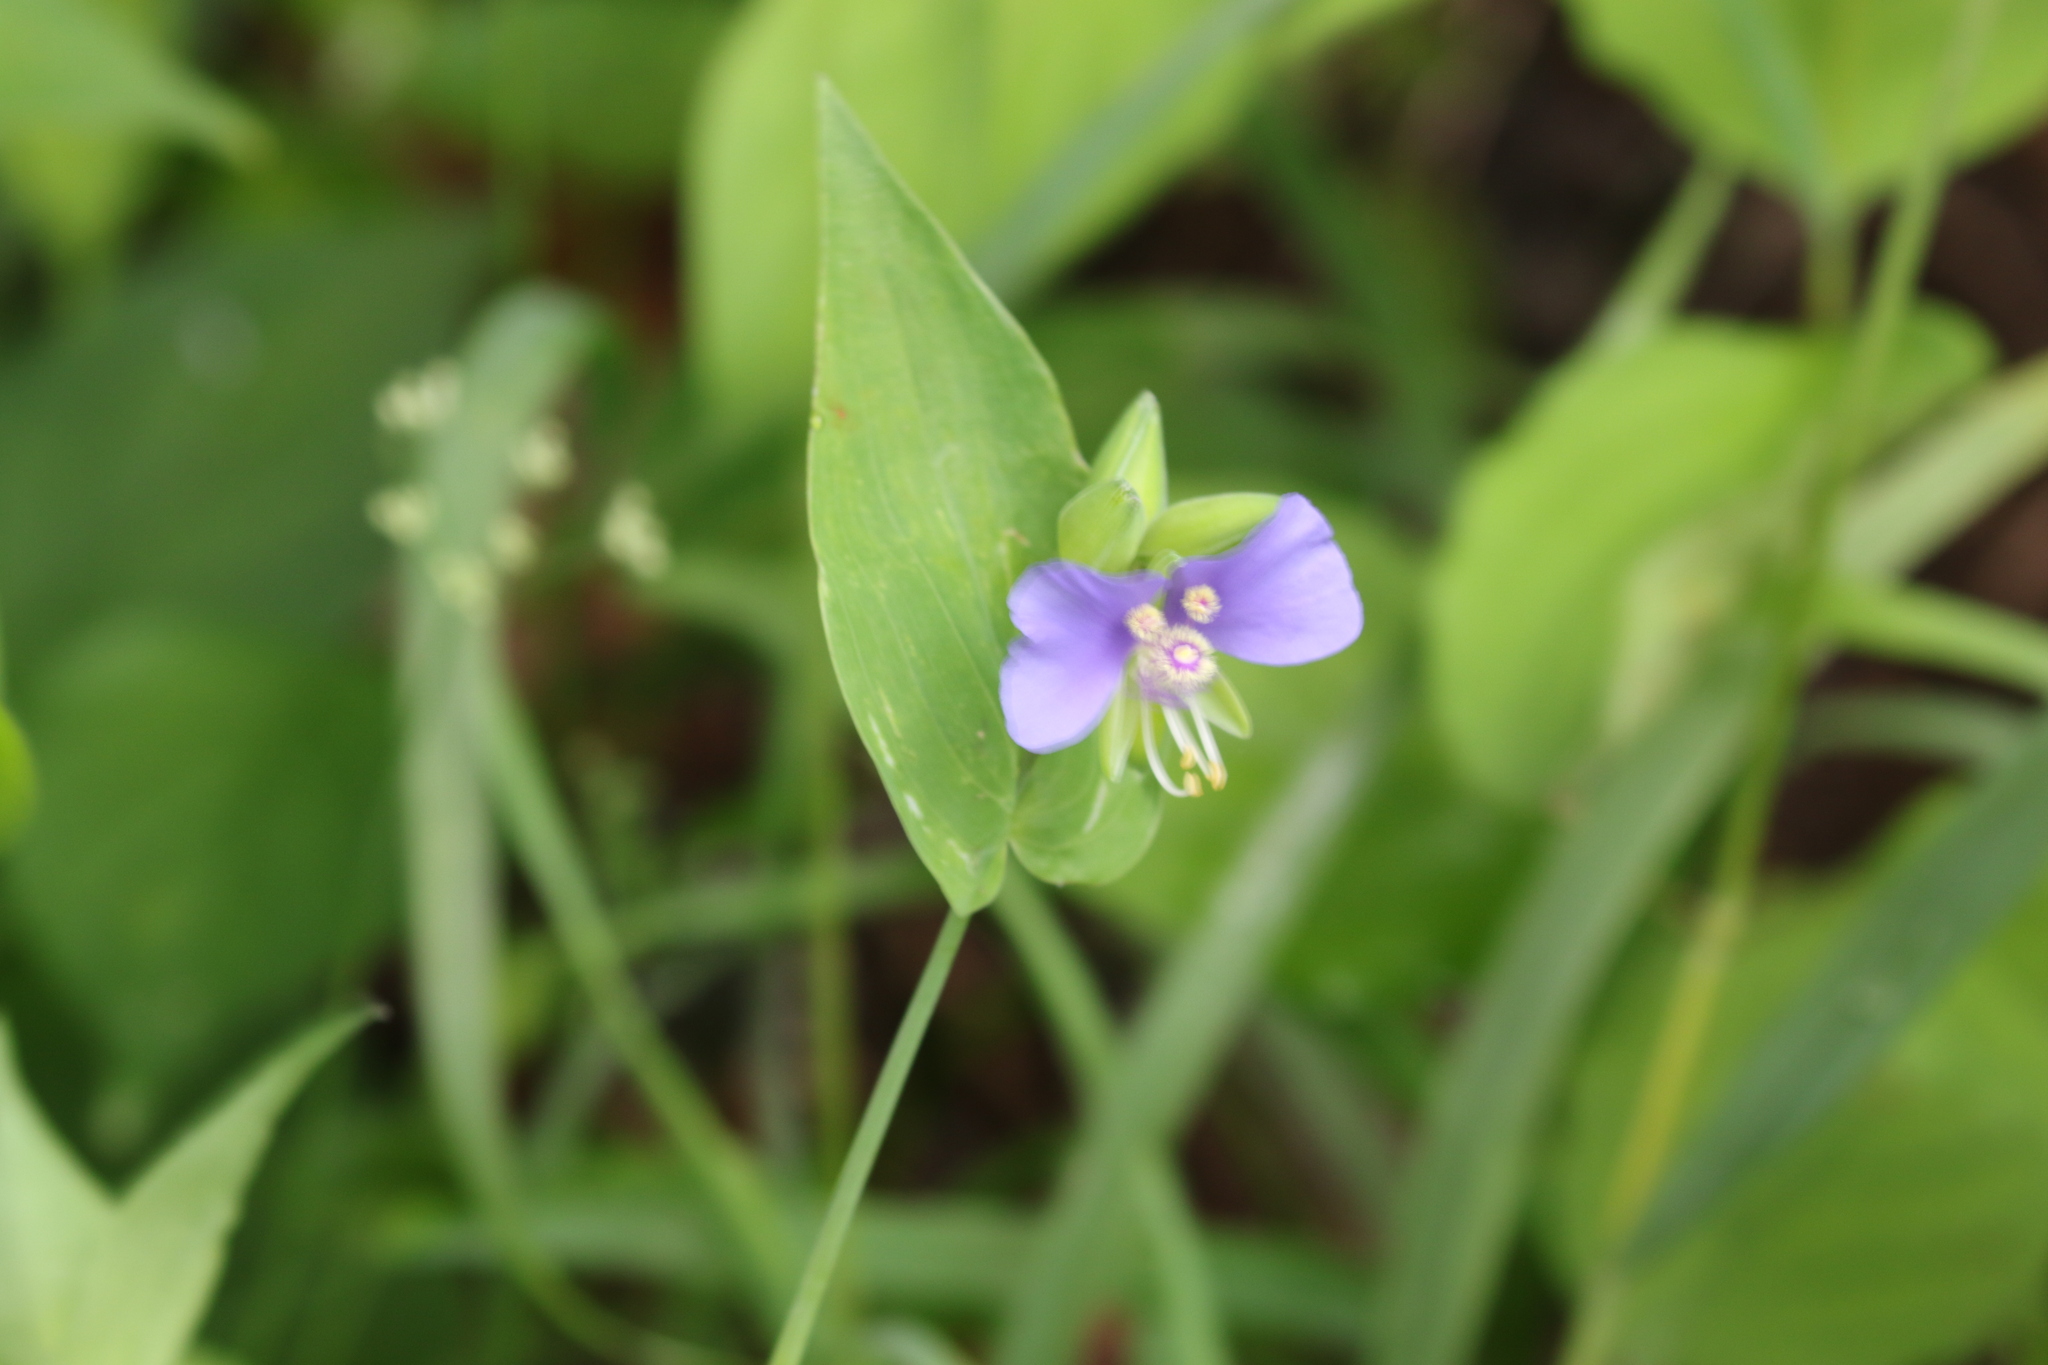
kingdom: Plantae
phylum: Tracheophyta
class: Liliopsida
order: Commelinales
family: Commelinaceae
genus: Tinantia
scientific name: Tinantia anomala
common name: False dayflower
